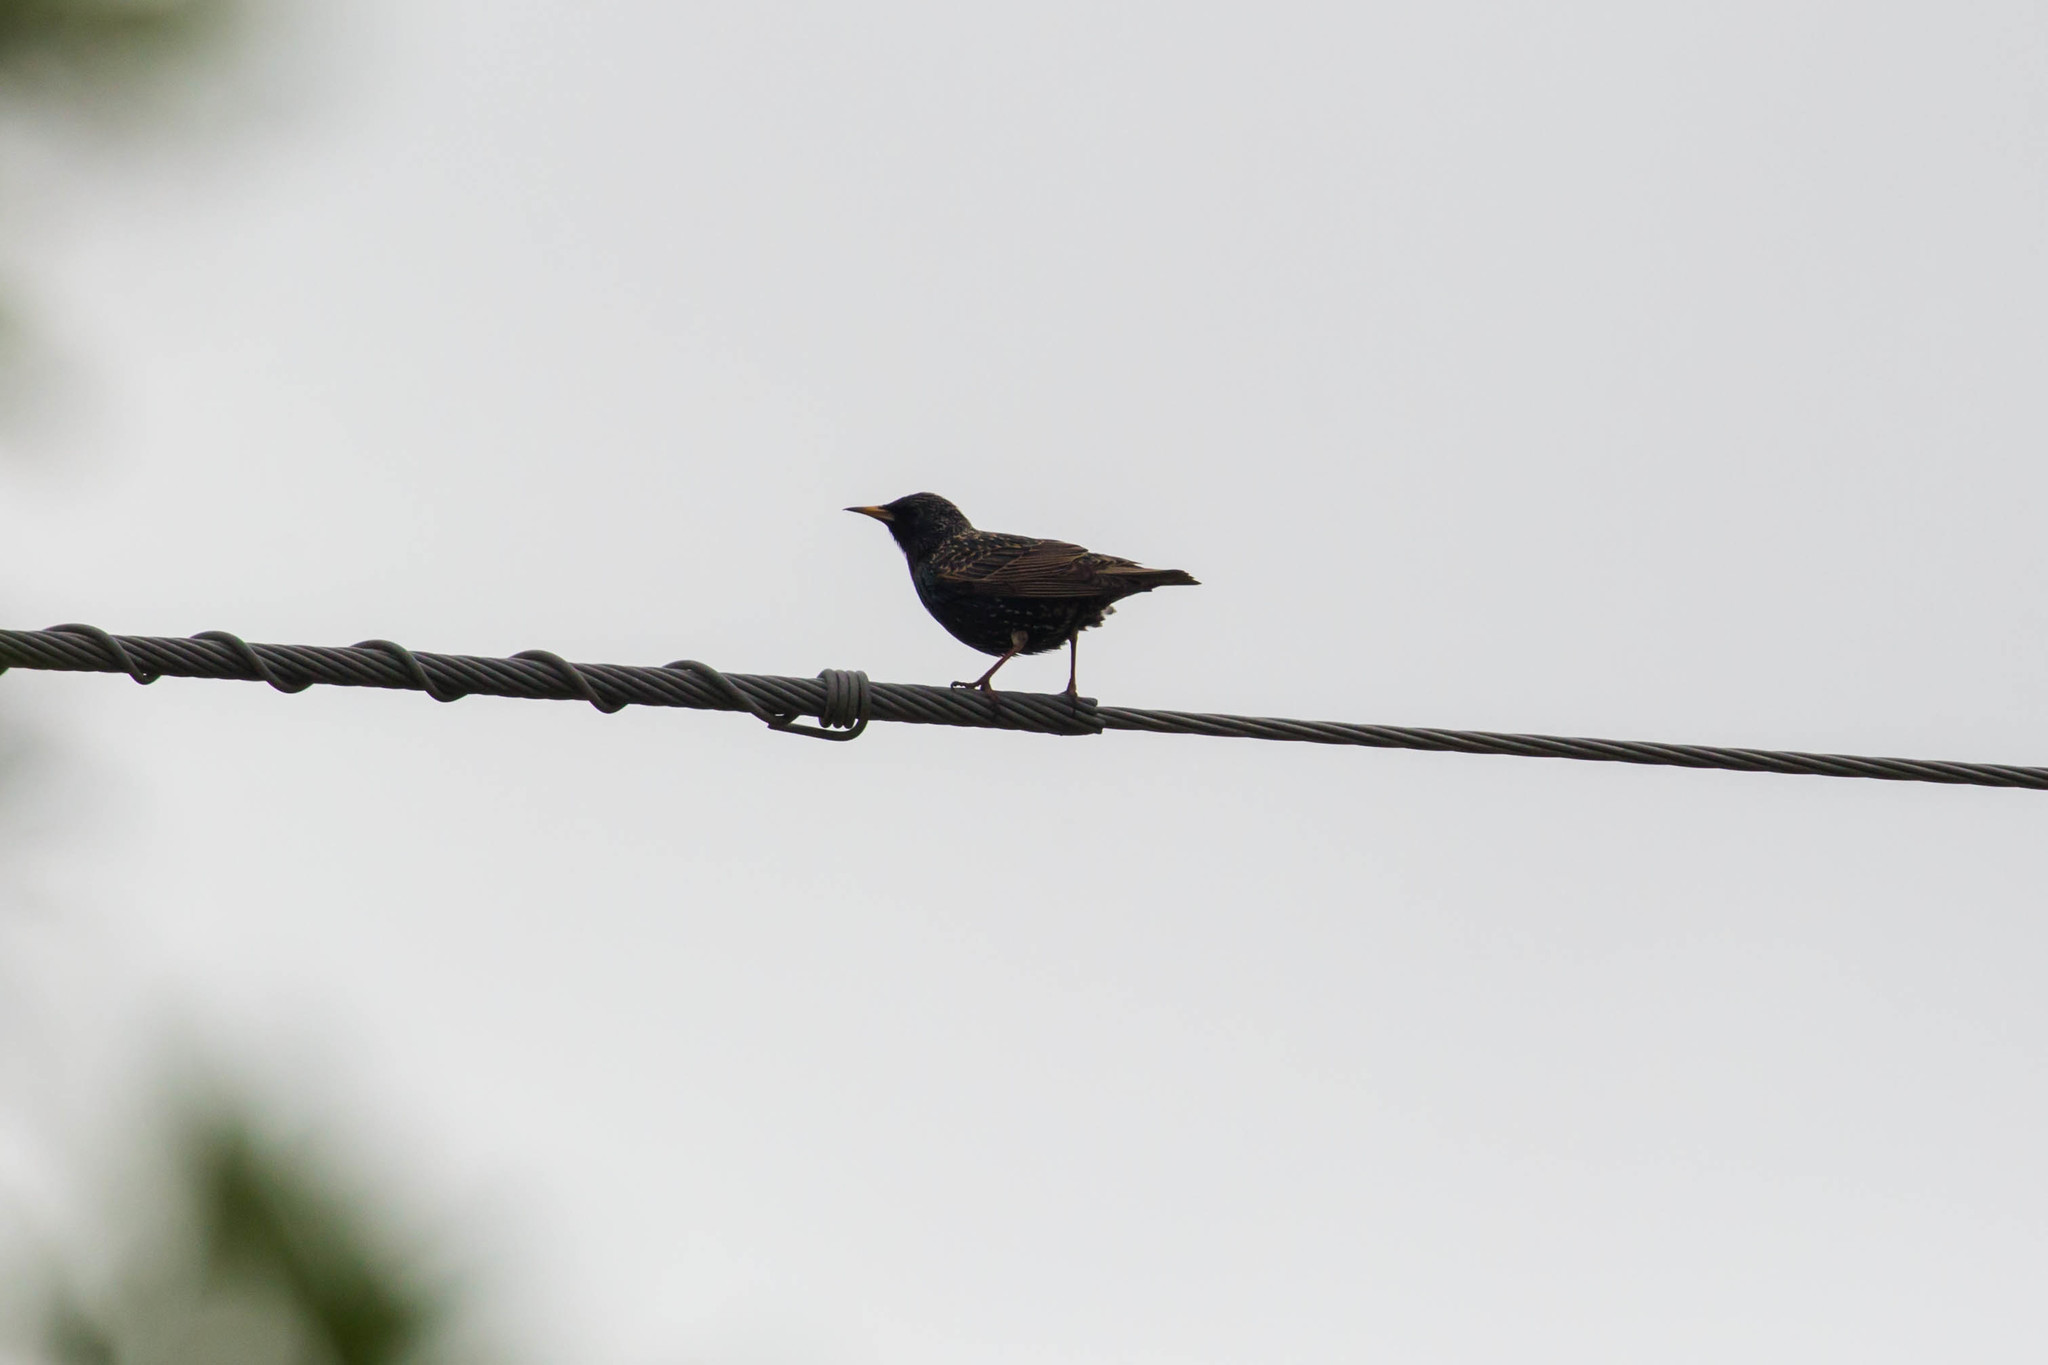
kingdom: Animalia
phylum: Chordata
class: Aves
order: Passeriformes
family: Sturnidae
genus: Sturnus
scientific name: Sturnus vulgaris
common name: Common starling
